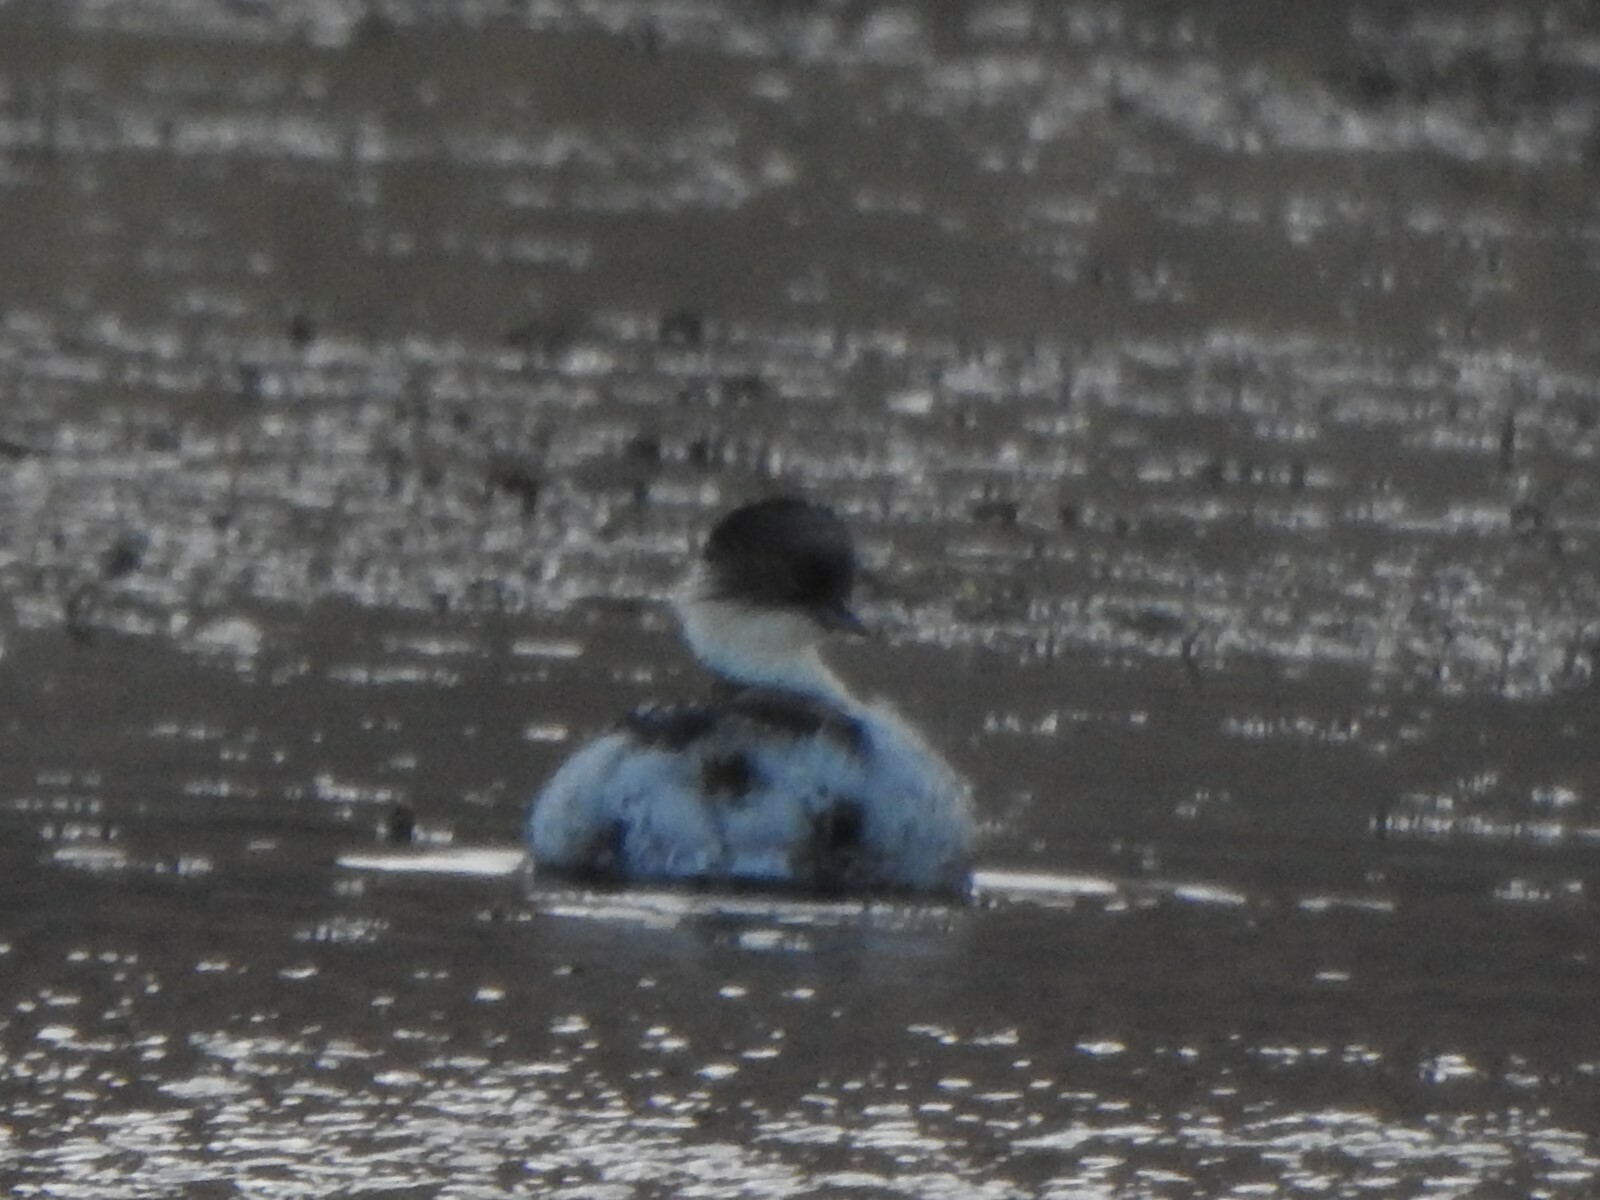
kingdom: Animalia
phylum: Chordata
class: Aves
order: Podicipediformes
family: Podicipedidae
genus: Podiceps
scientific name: Podiceps occipitalis
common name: Silvery grebe
